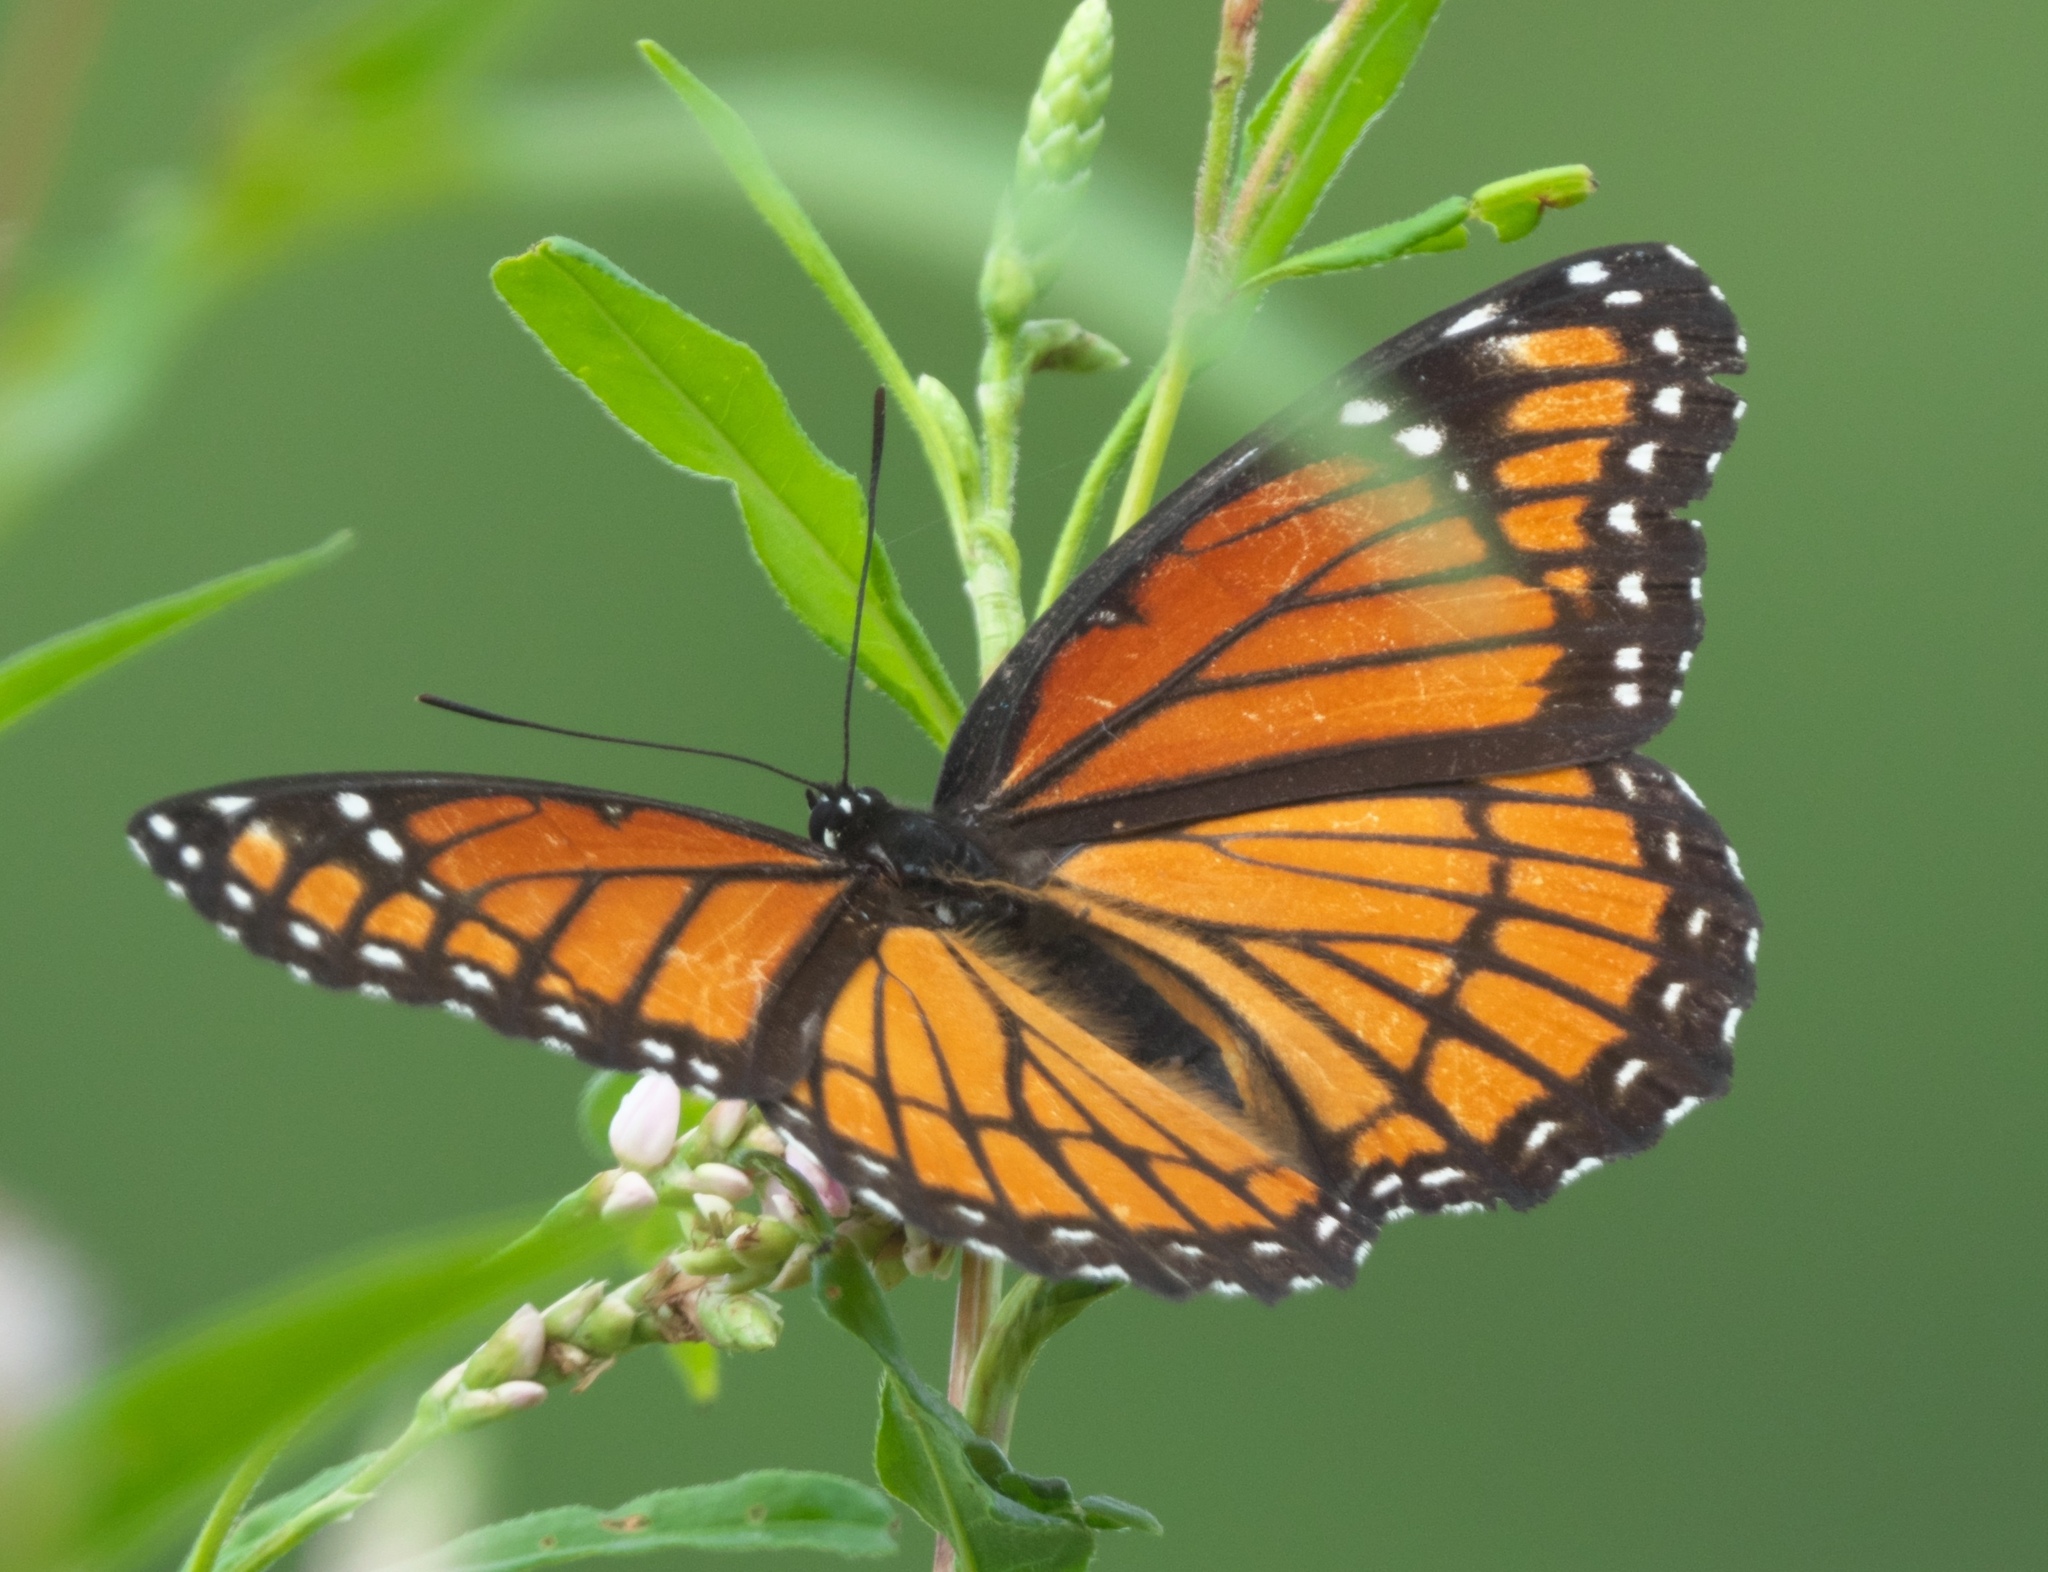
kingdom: Animalia
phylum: Arthropoda
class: Insecta
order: Lepidoptera
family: Nymphalidae
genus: Limenitis
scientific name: Limenitis archippus
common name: Viceroy
